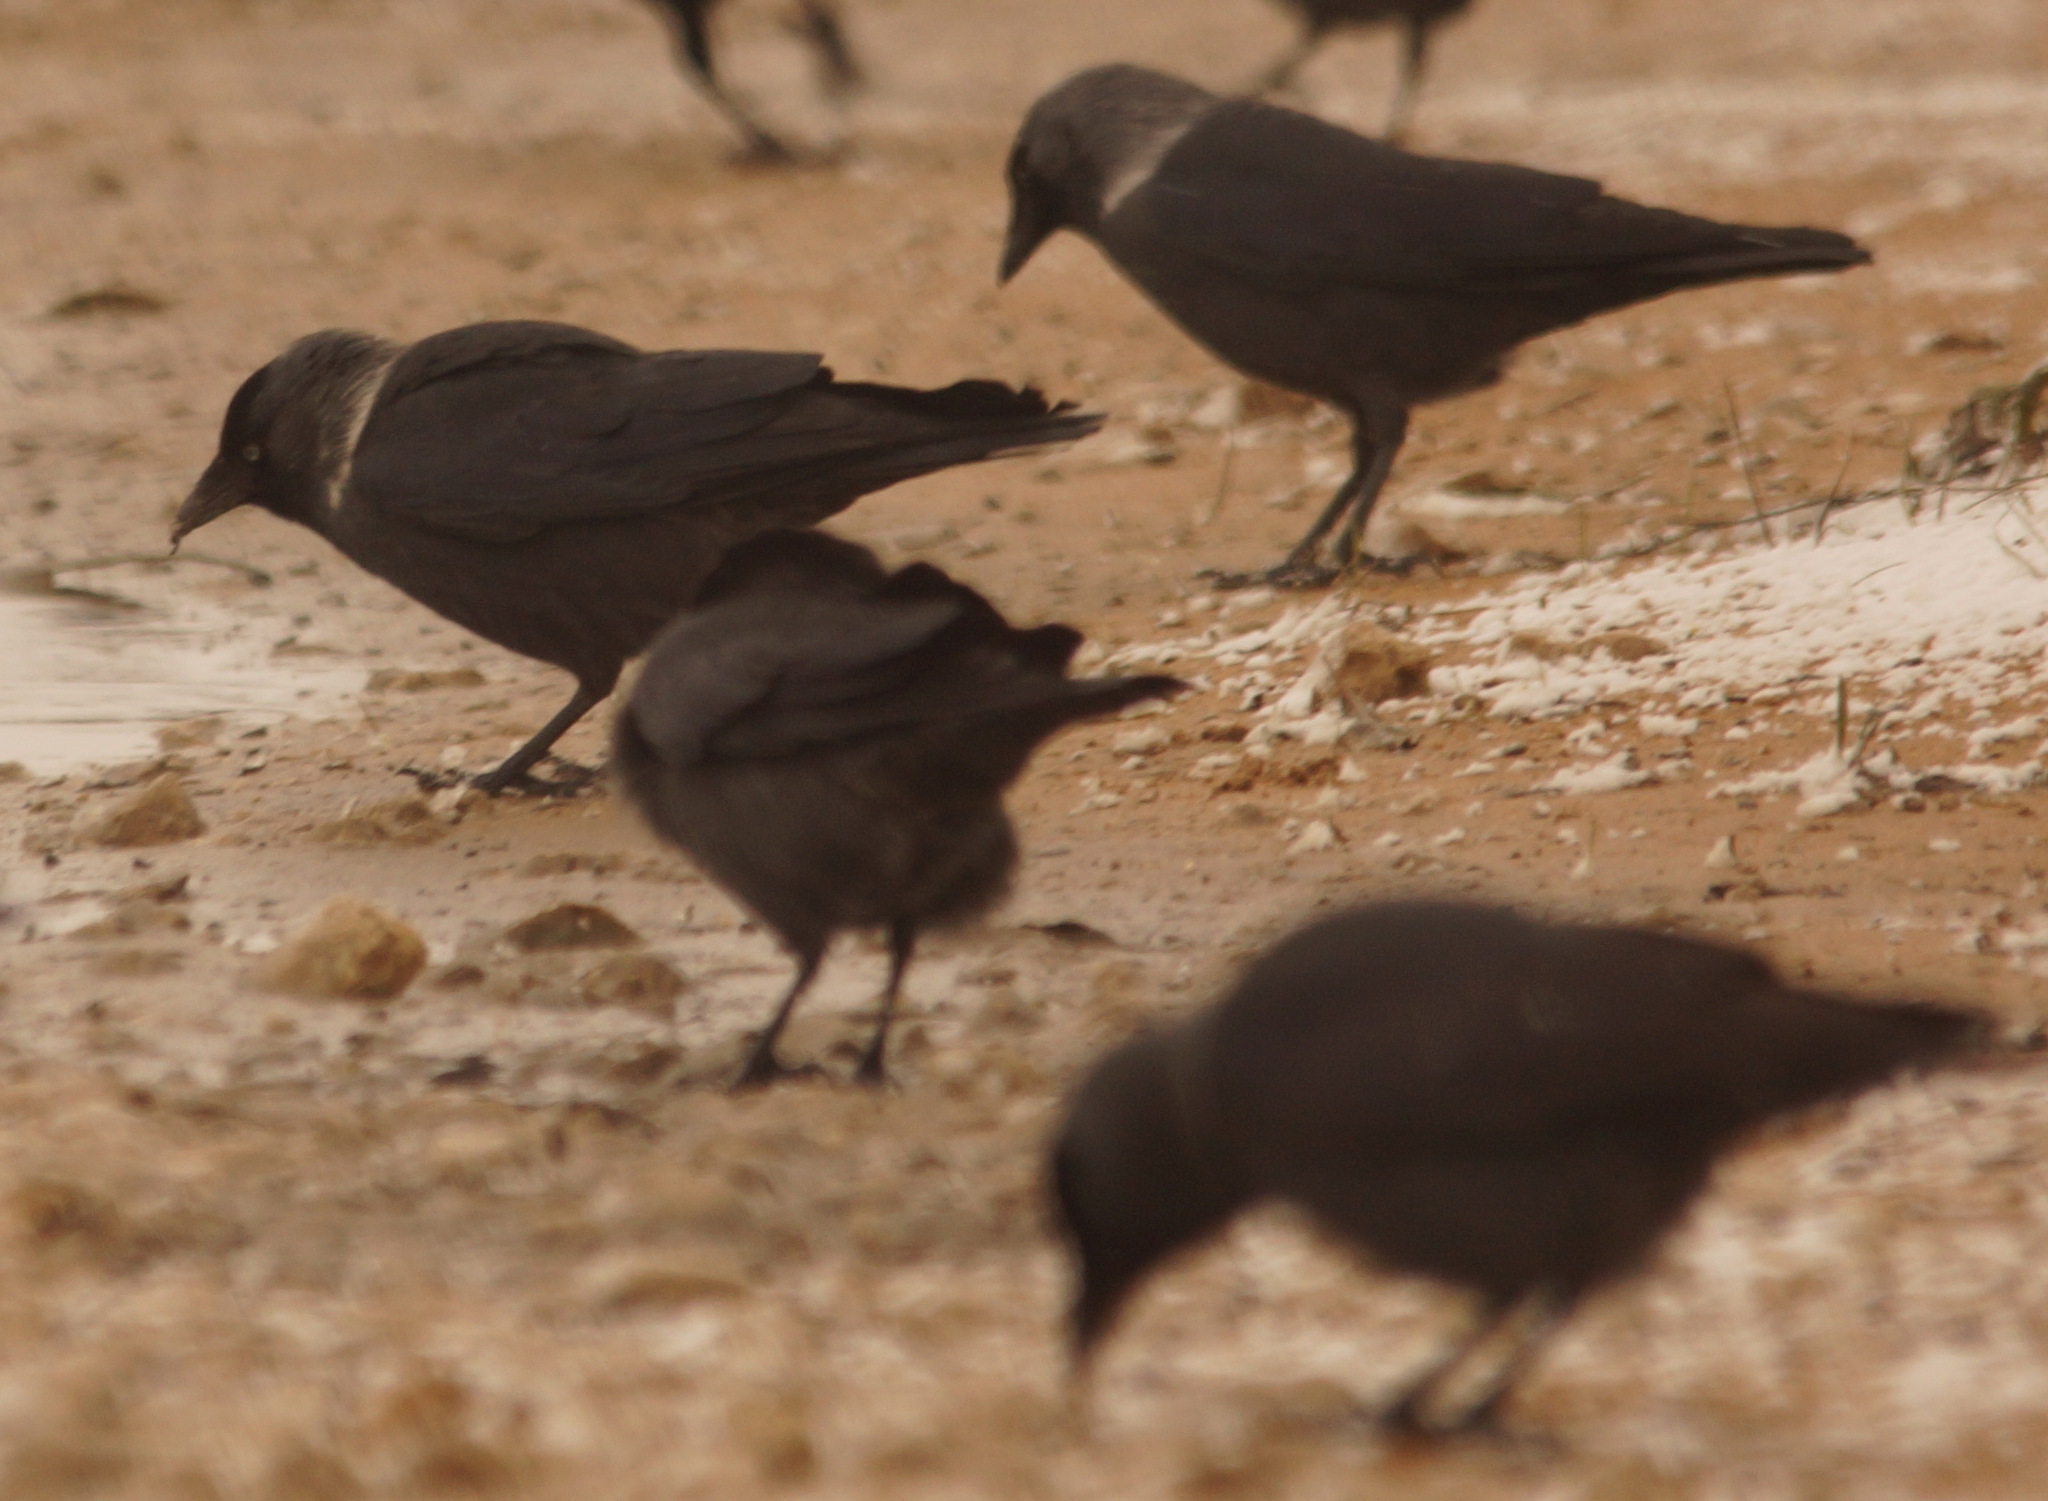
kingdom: Animalia
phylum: Chordata
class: Aves
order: Passeriformes
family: Corvidae
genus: Coloeus
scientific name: Coloeus monedula
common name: Western jackdaw
